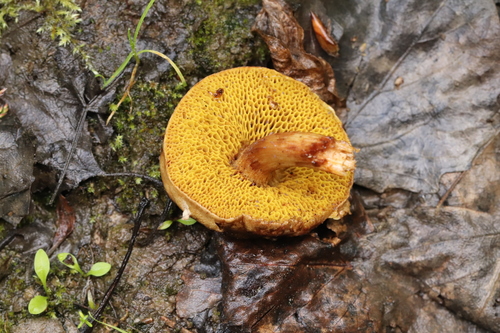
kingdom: Fungi
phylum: Basidiomycota
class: Agaricomycetes
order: Boletales
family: Boletaceae
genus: Xerocomus
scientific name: Xerocomus subtomentosus
